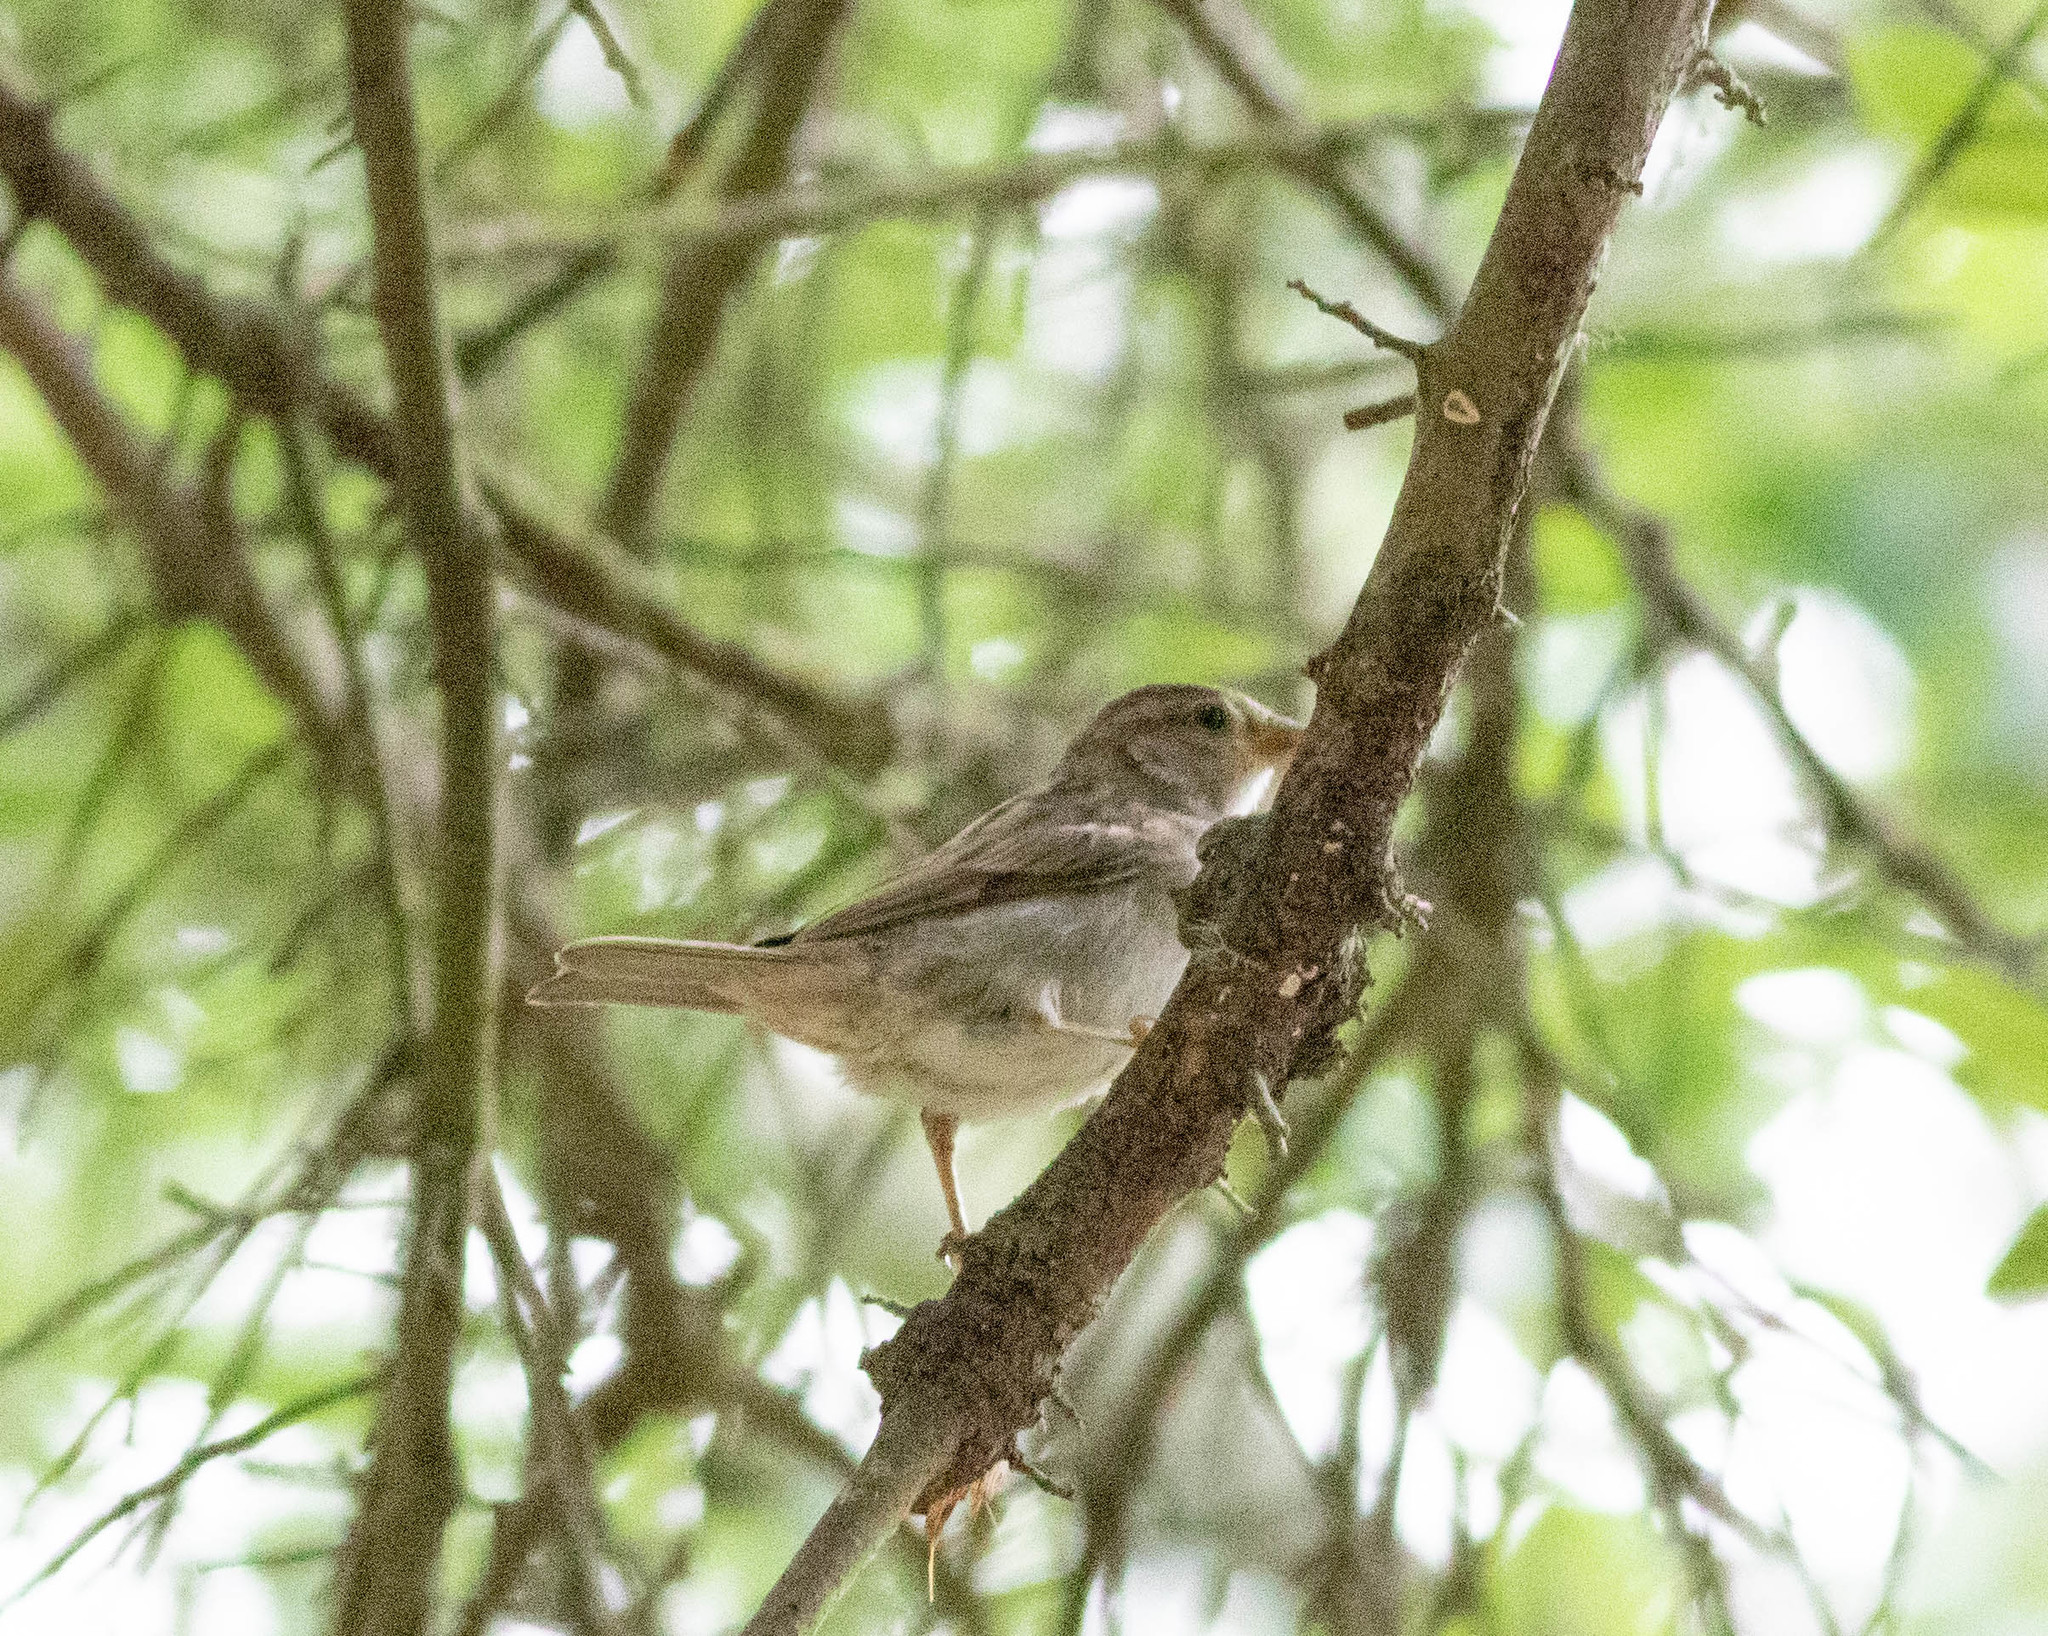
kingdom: Animalia
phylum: Chordata
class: Aves
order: Passeriformes
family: Passeridae
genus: Passer
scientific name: Passer domesticus
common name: House sparrow
